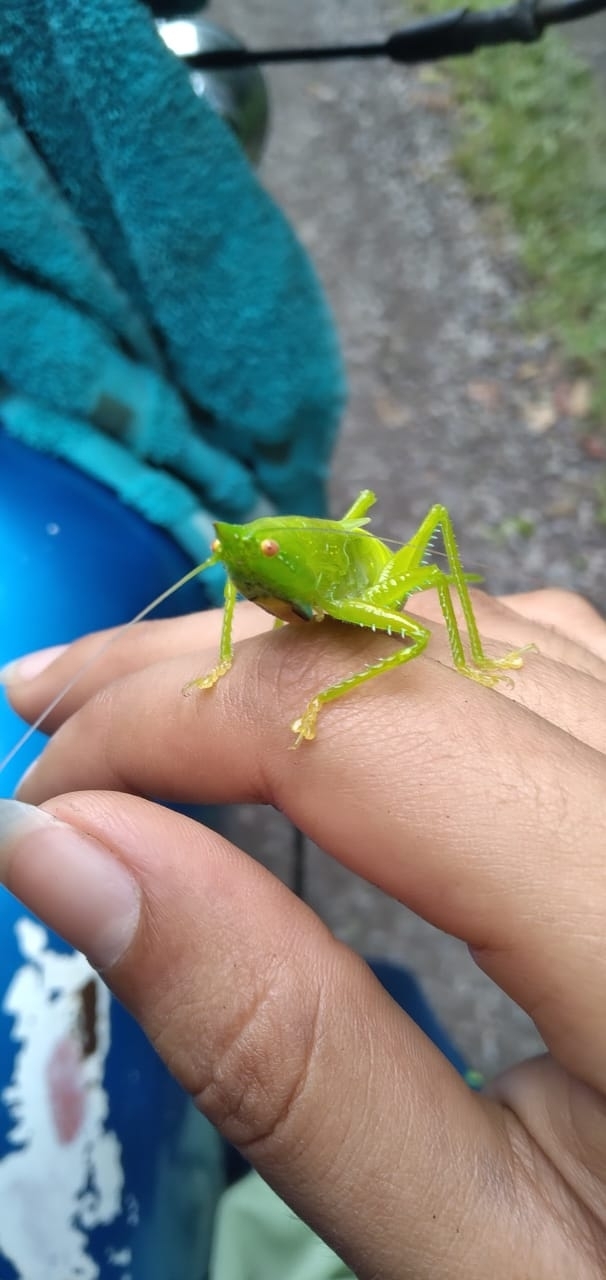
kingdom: Animalia
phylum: Arthropoda
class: Insecta
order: Orthoptera
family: Tettigoniidae
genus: Copiphora
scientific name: Copiphora vigorosa
